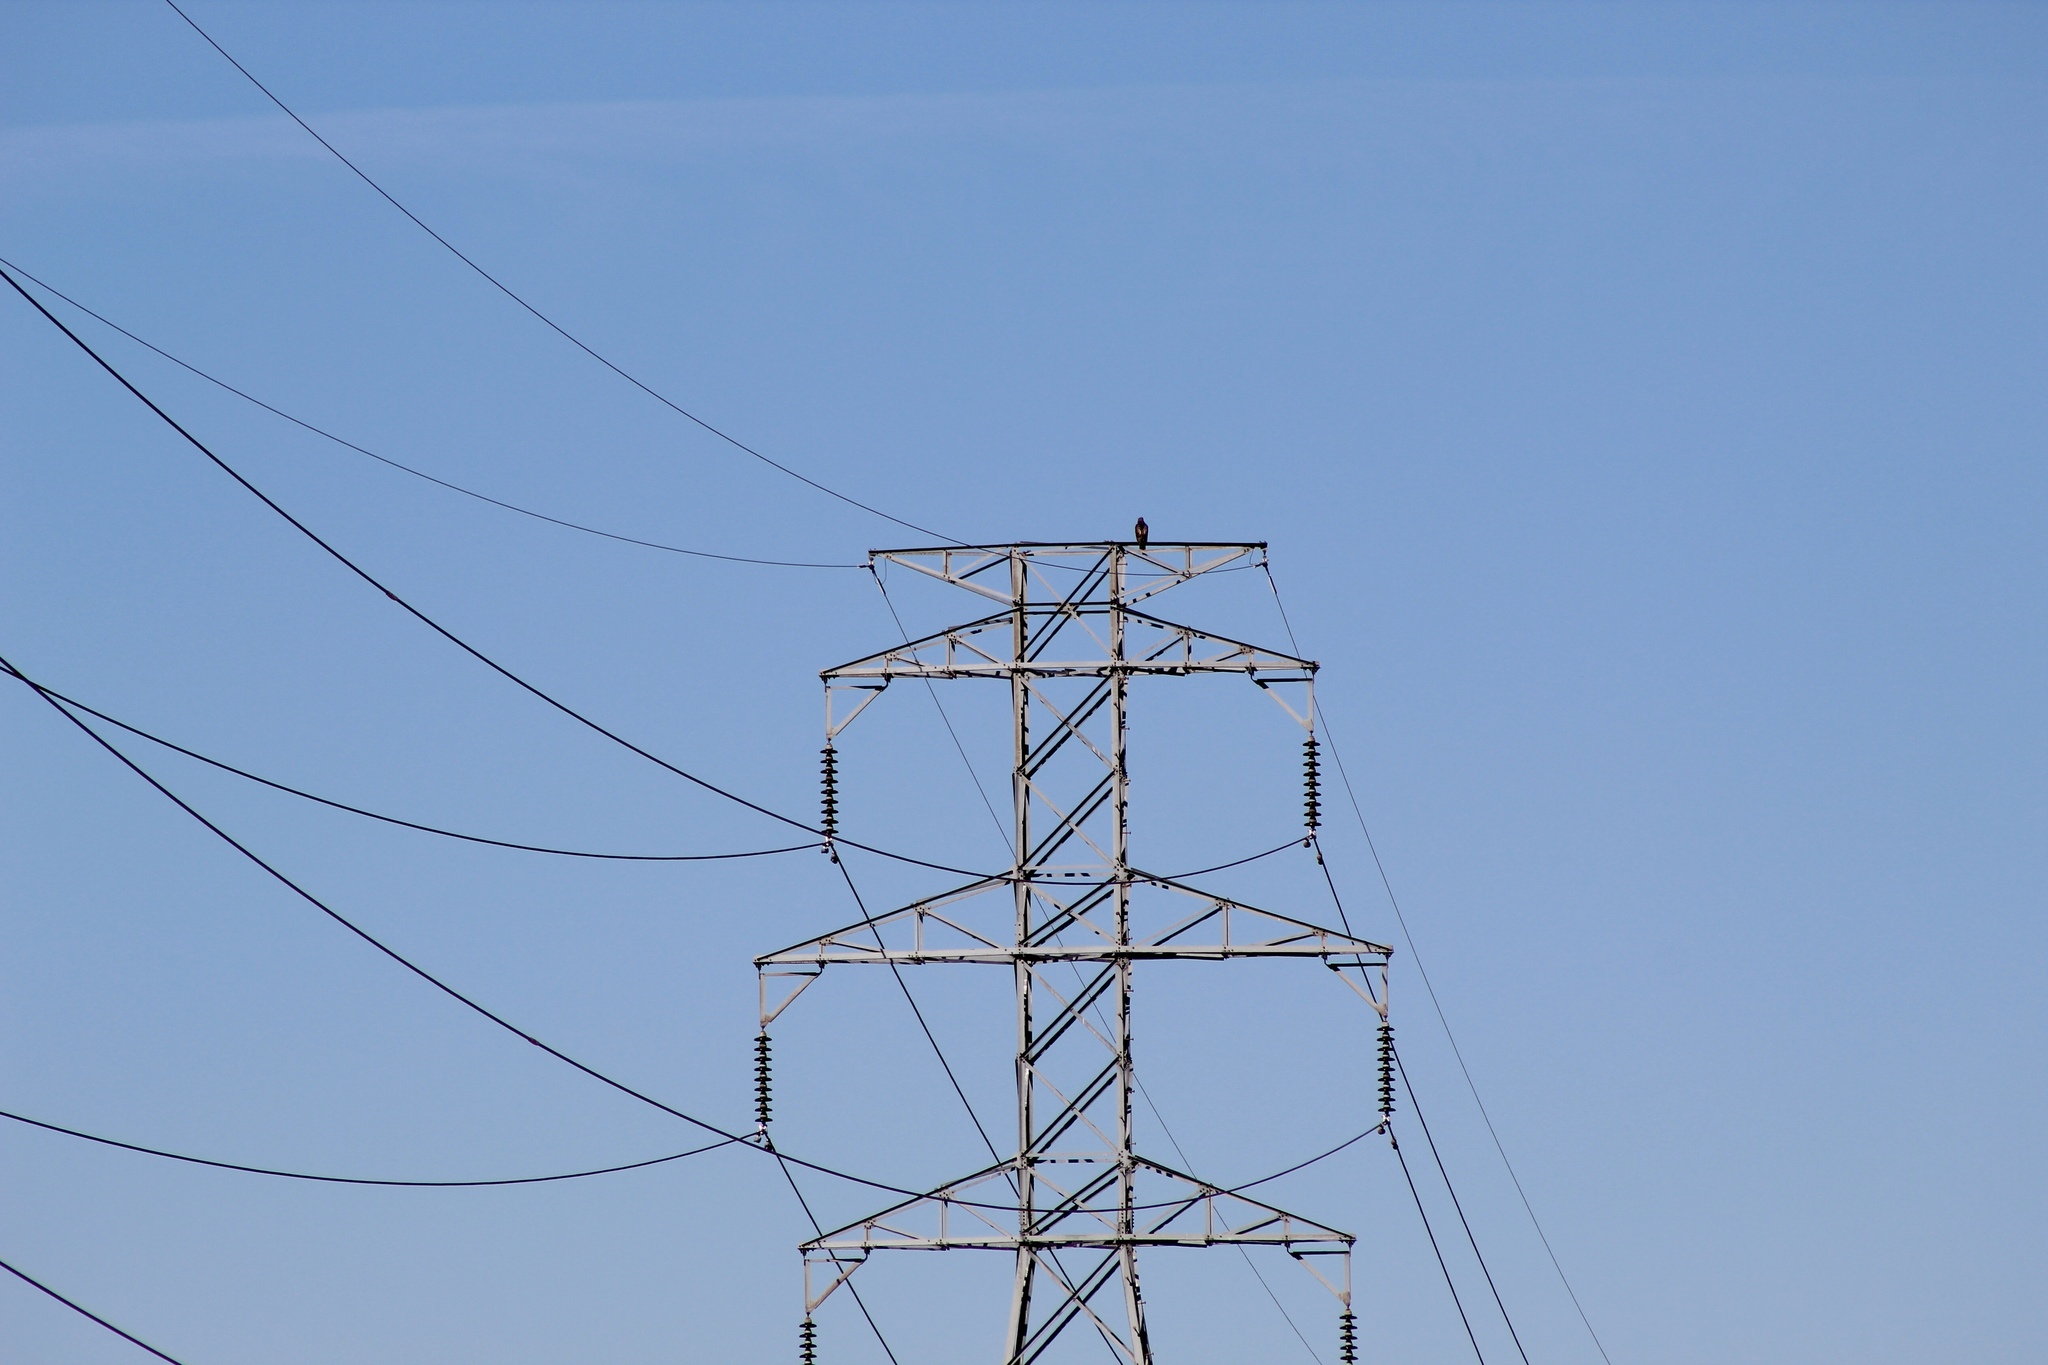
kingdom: Animalia
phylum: Chordata
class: Aves
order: Accipitriformes
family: Accipitridae
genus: Buteo
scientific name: Buteo jamaicensis
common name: Red-tailed hawk
